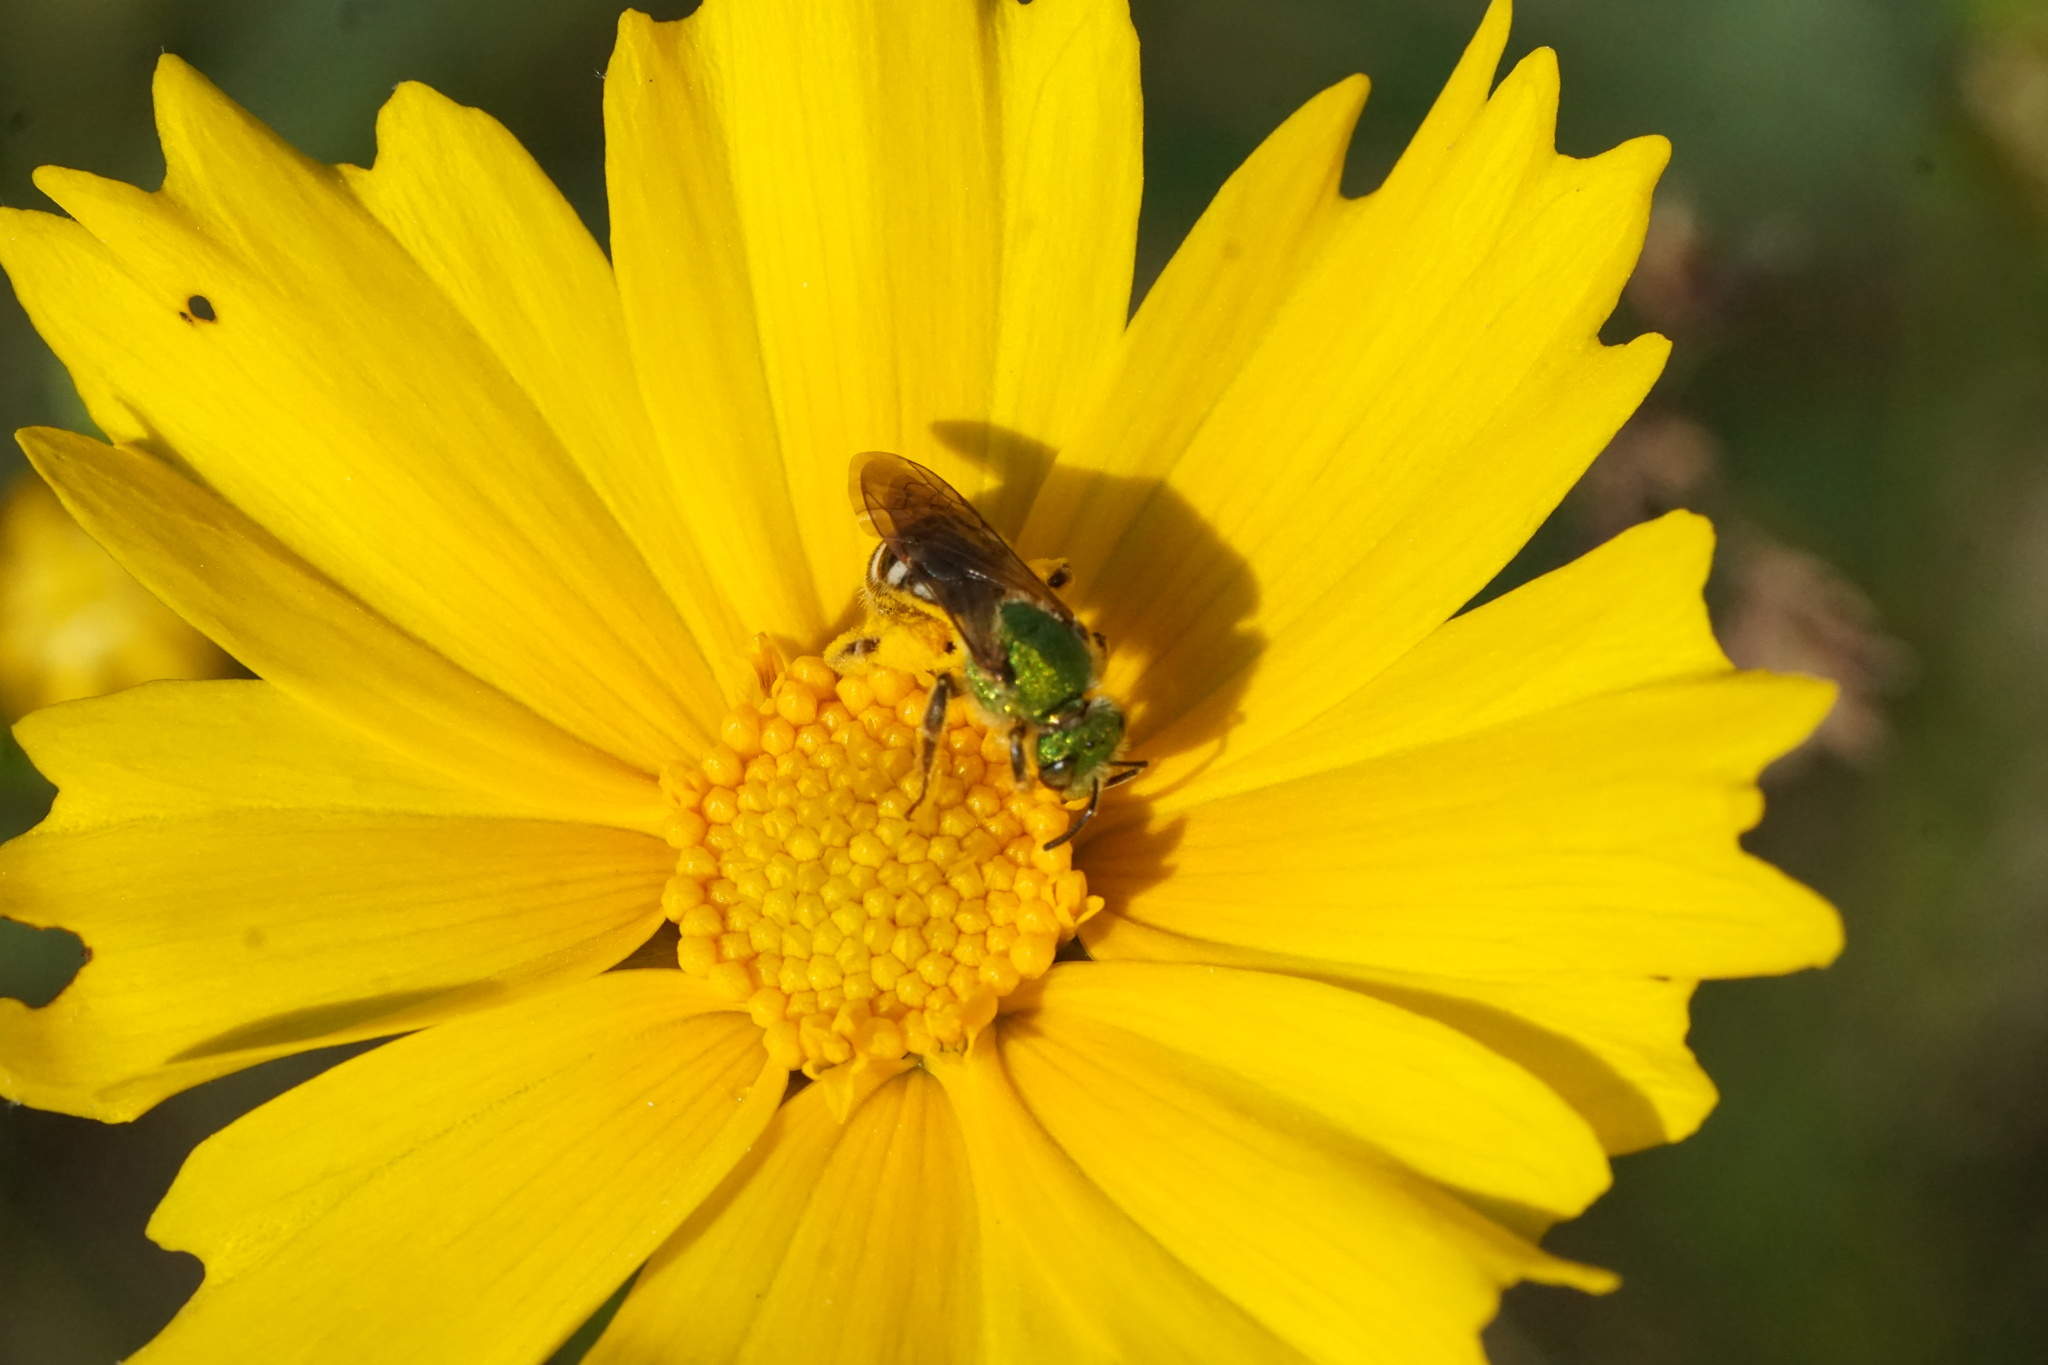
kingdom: Animalia
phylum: Arthropoda
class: Insecta
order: Hymenoptera
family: Halictidae
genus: Agapostemon
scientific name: Agapostemon virescens
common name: Bicolored striped sweat bee
